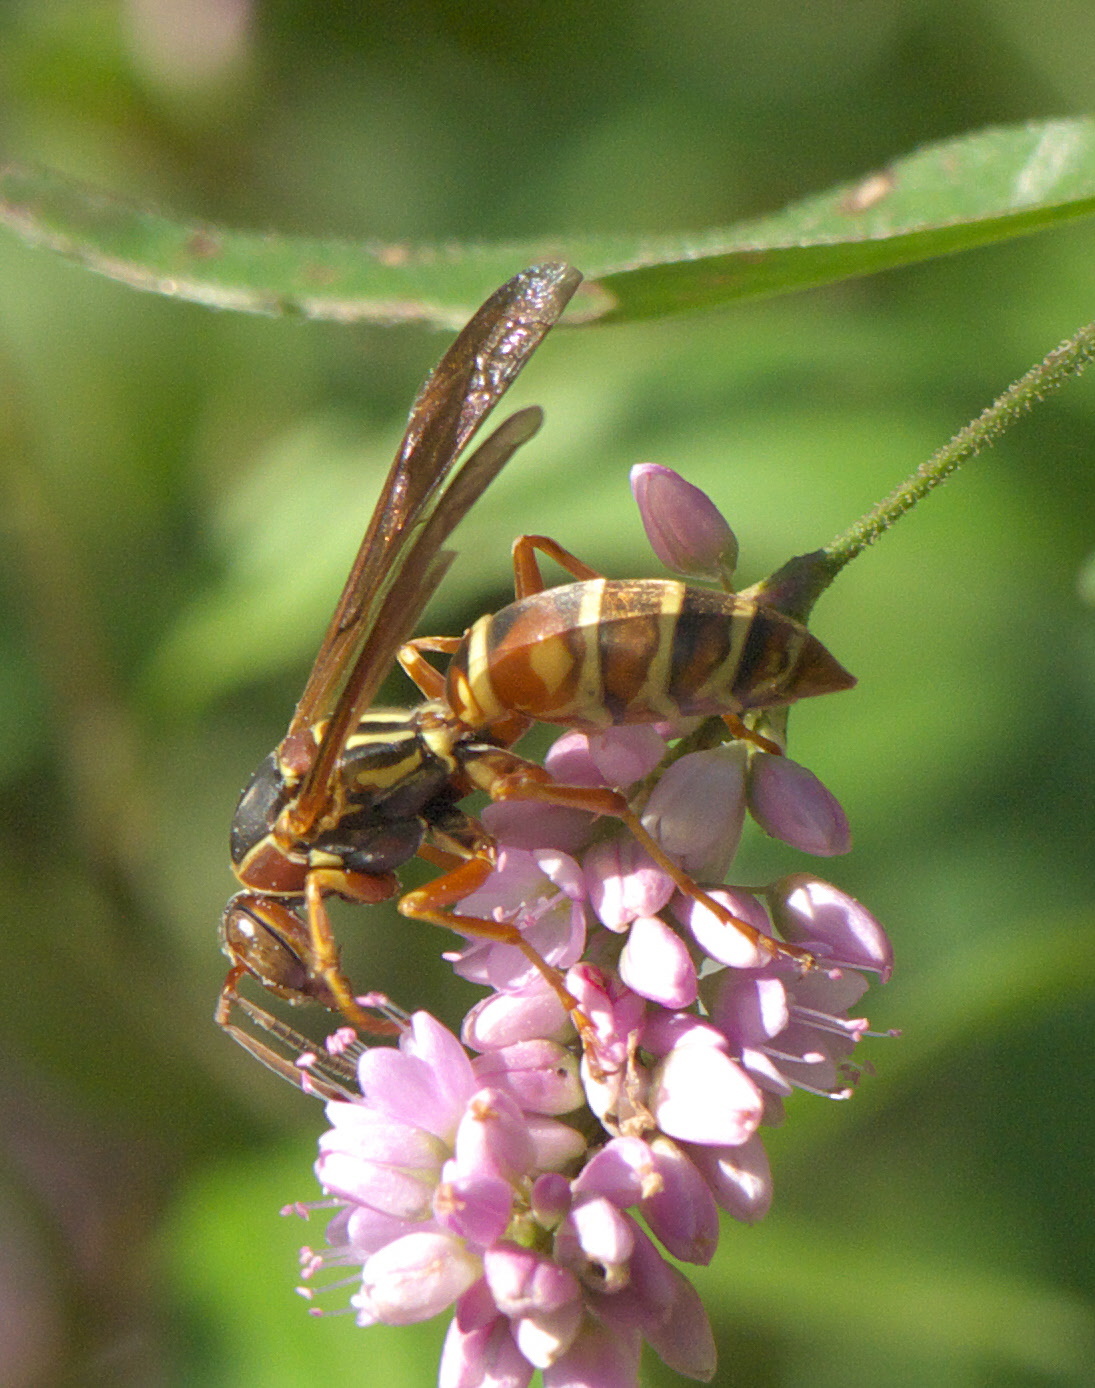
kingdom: Animalia
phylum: Arthropoda
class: Insecta
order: Hymenoptera
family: Eumenidae
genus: Polistes
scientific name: Polistes fuscatus
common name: Dark paper wasp
